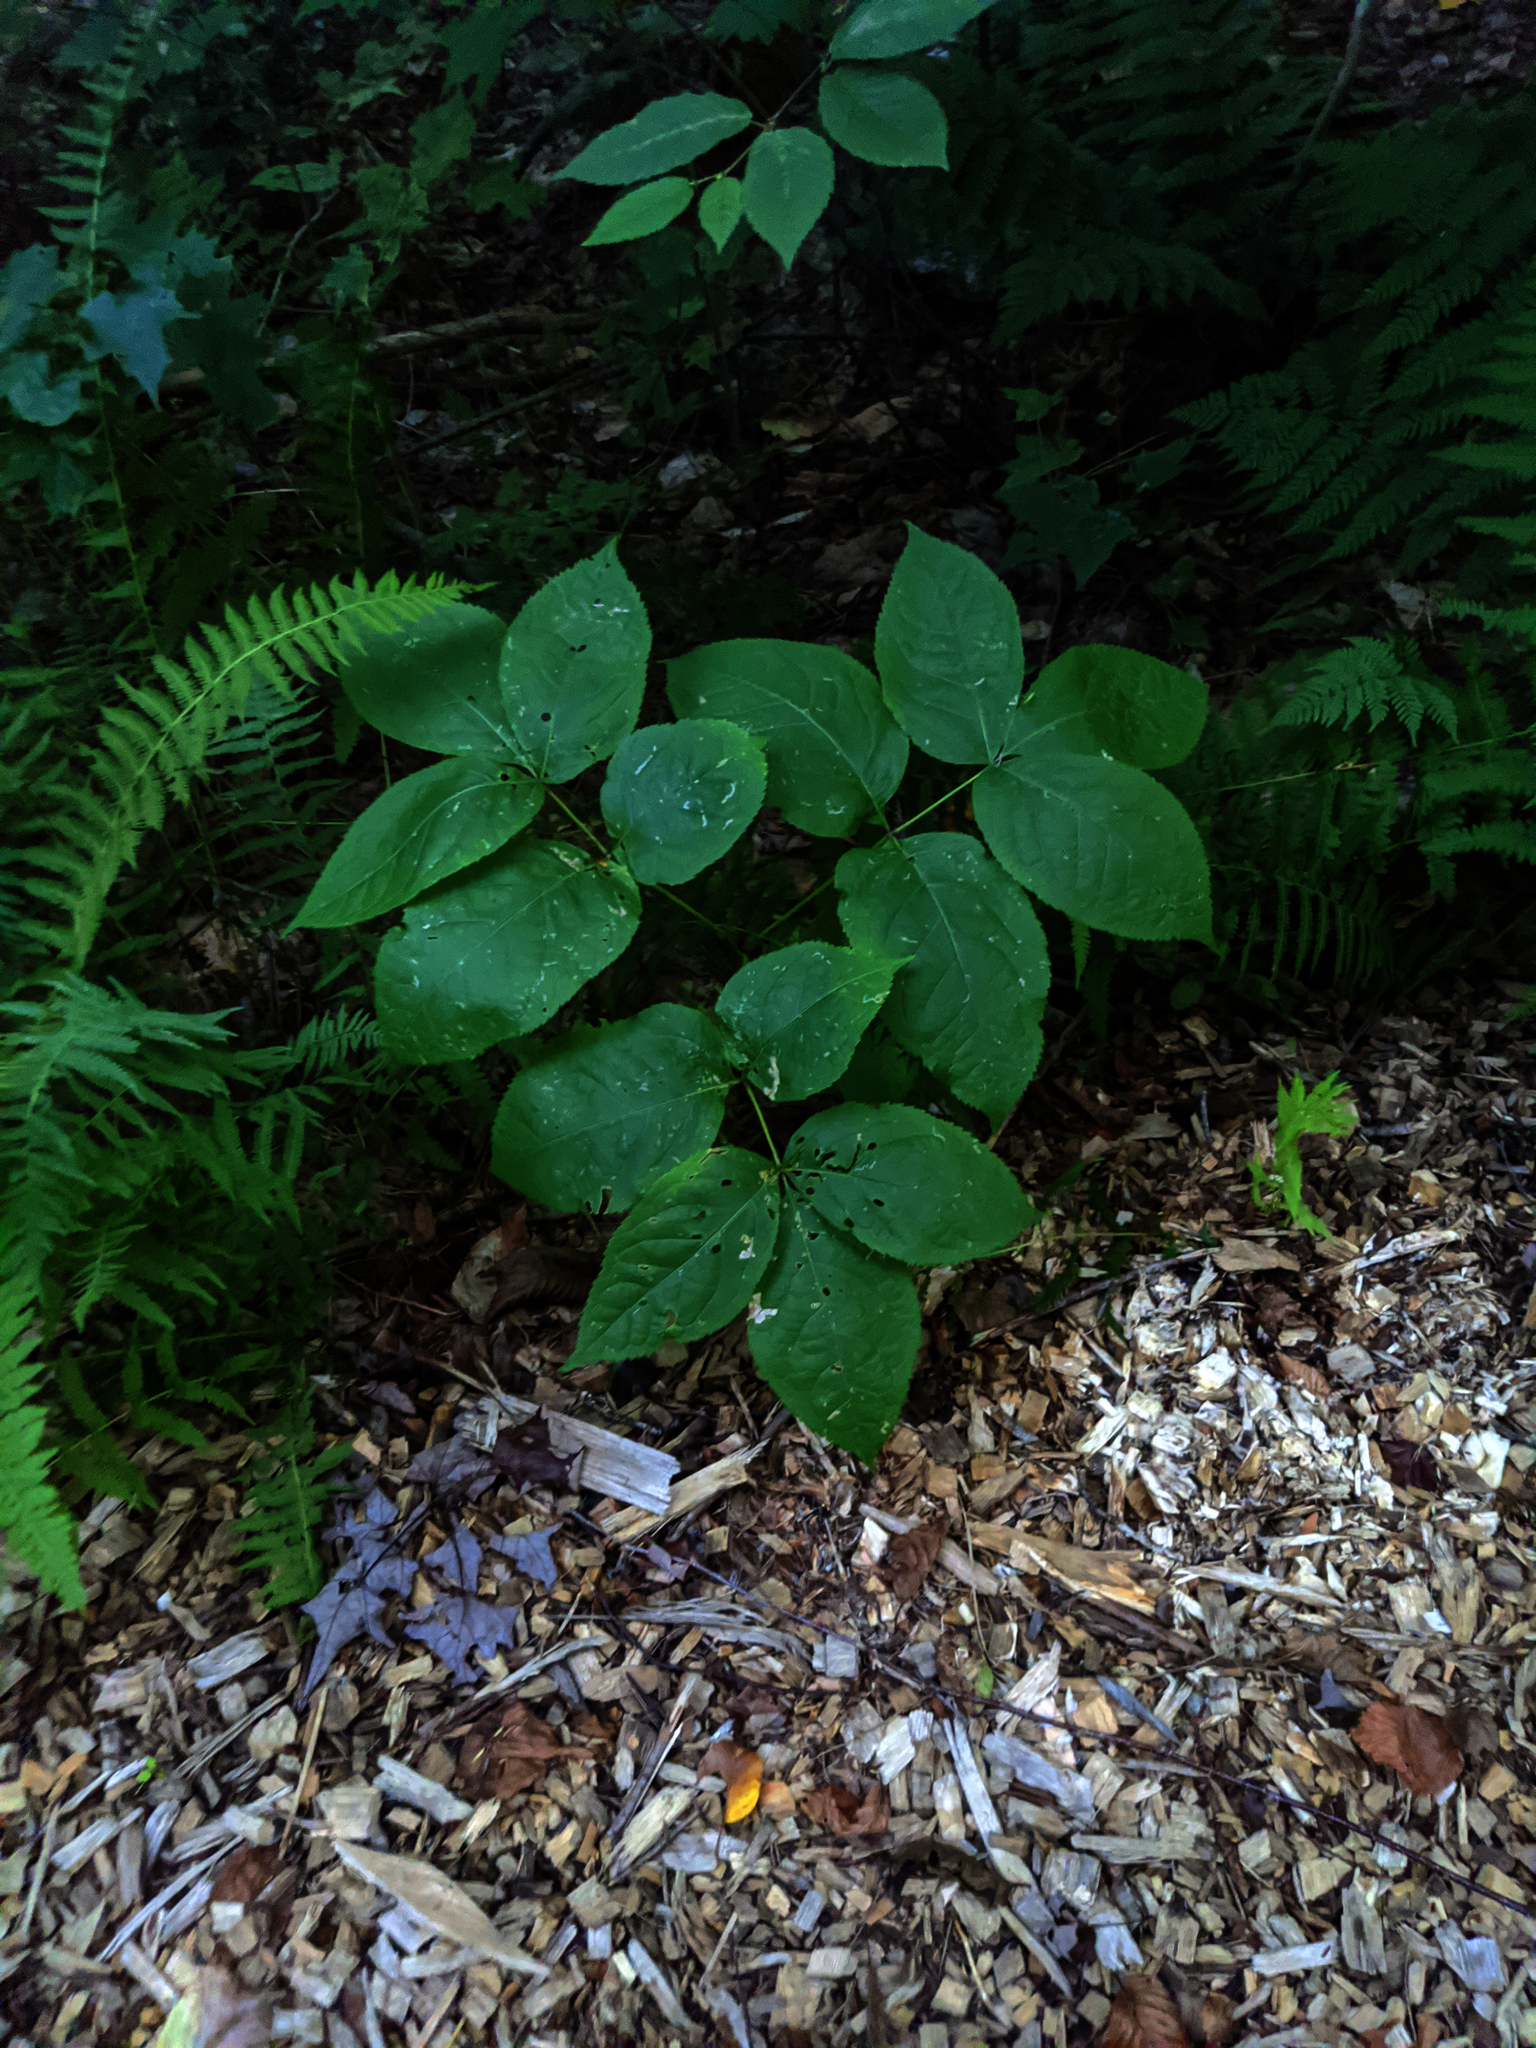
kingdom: Plantae
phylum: Tracheophyta
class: Magnoliopsida
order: Apiales
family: Araliaceae
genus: Aralia
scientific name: Aralia nudicaulis
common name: Wild sarsaparilla
